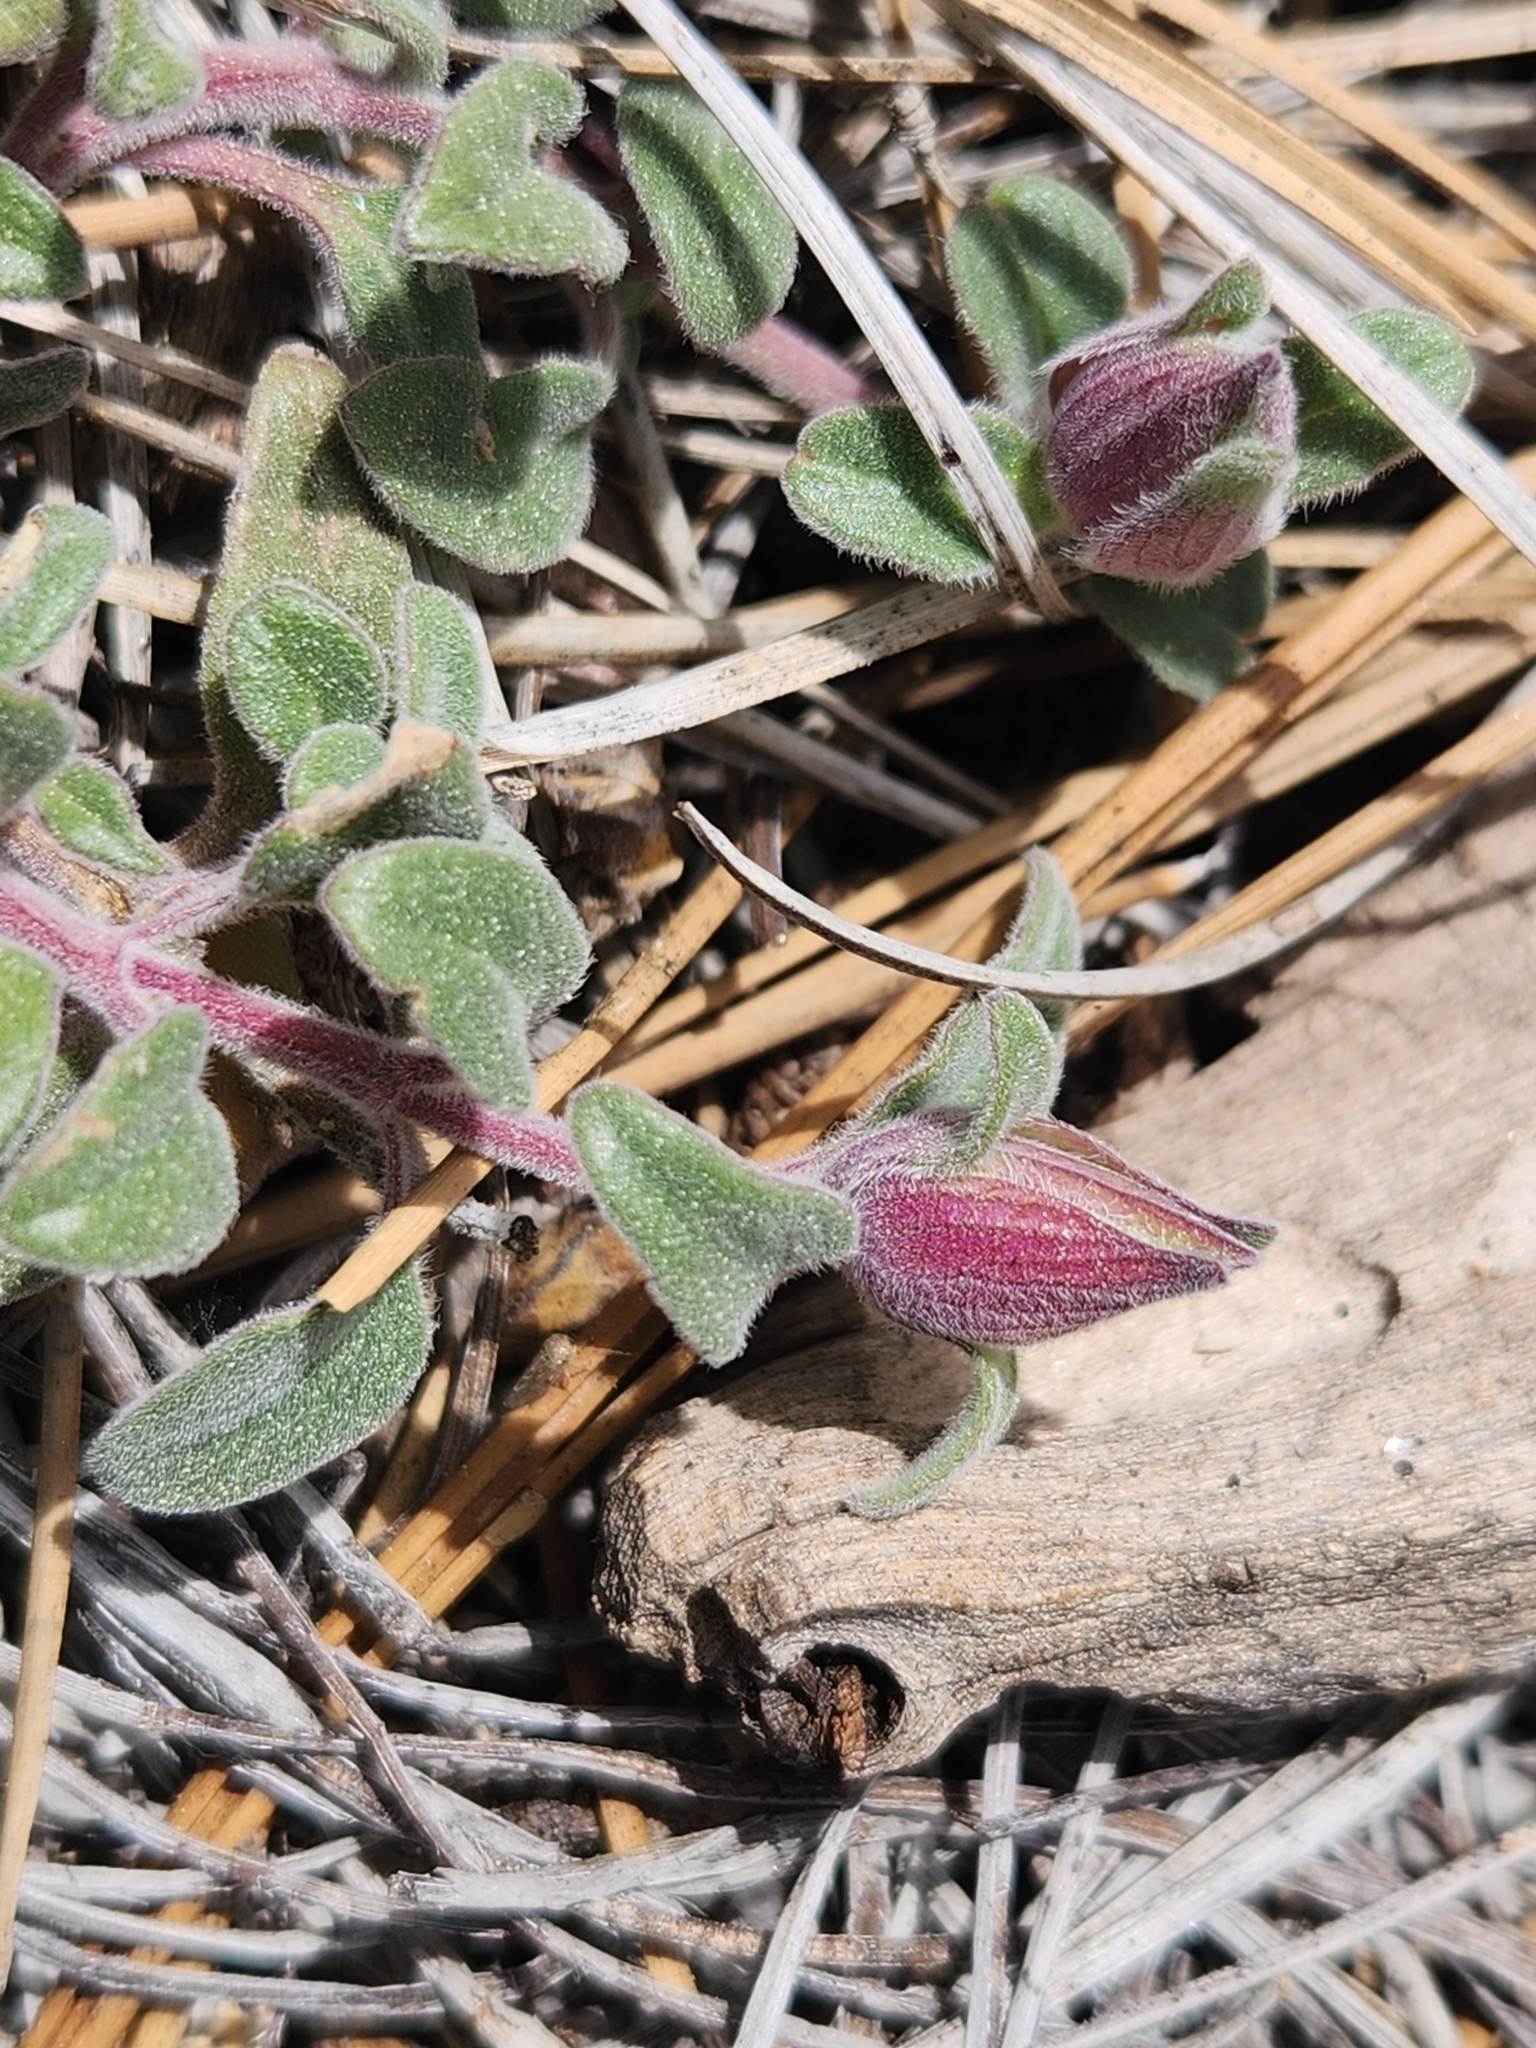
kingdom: Plantae
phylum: Tracheophyta
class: Magnoliopsida
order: Lamiales
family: Lamiaceae
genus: Monardella
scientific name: Monardella nana
